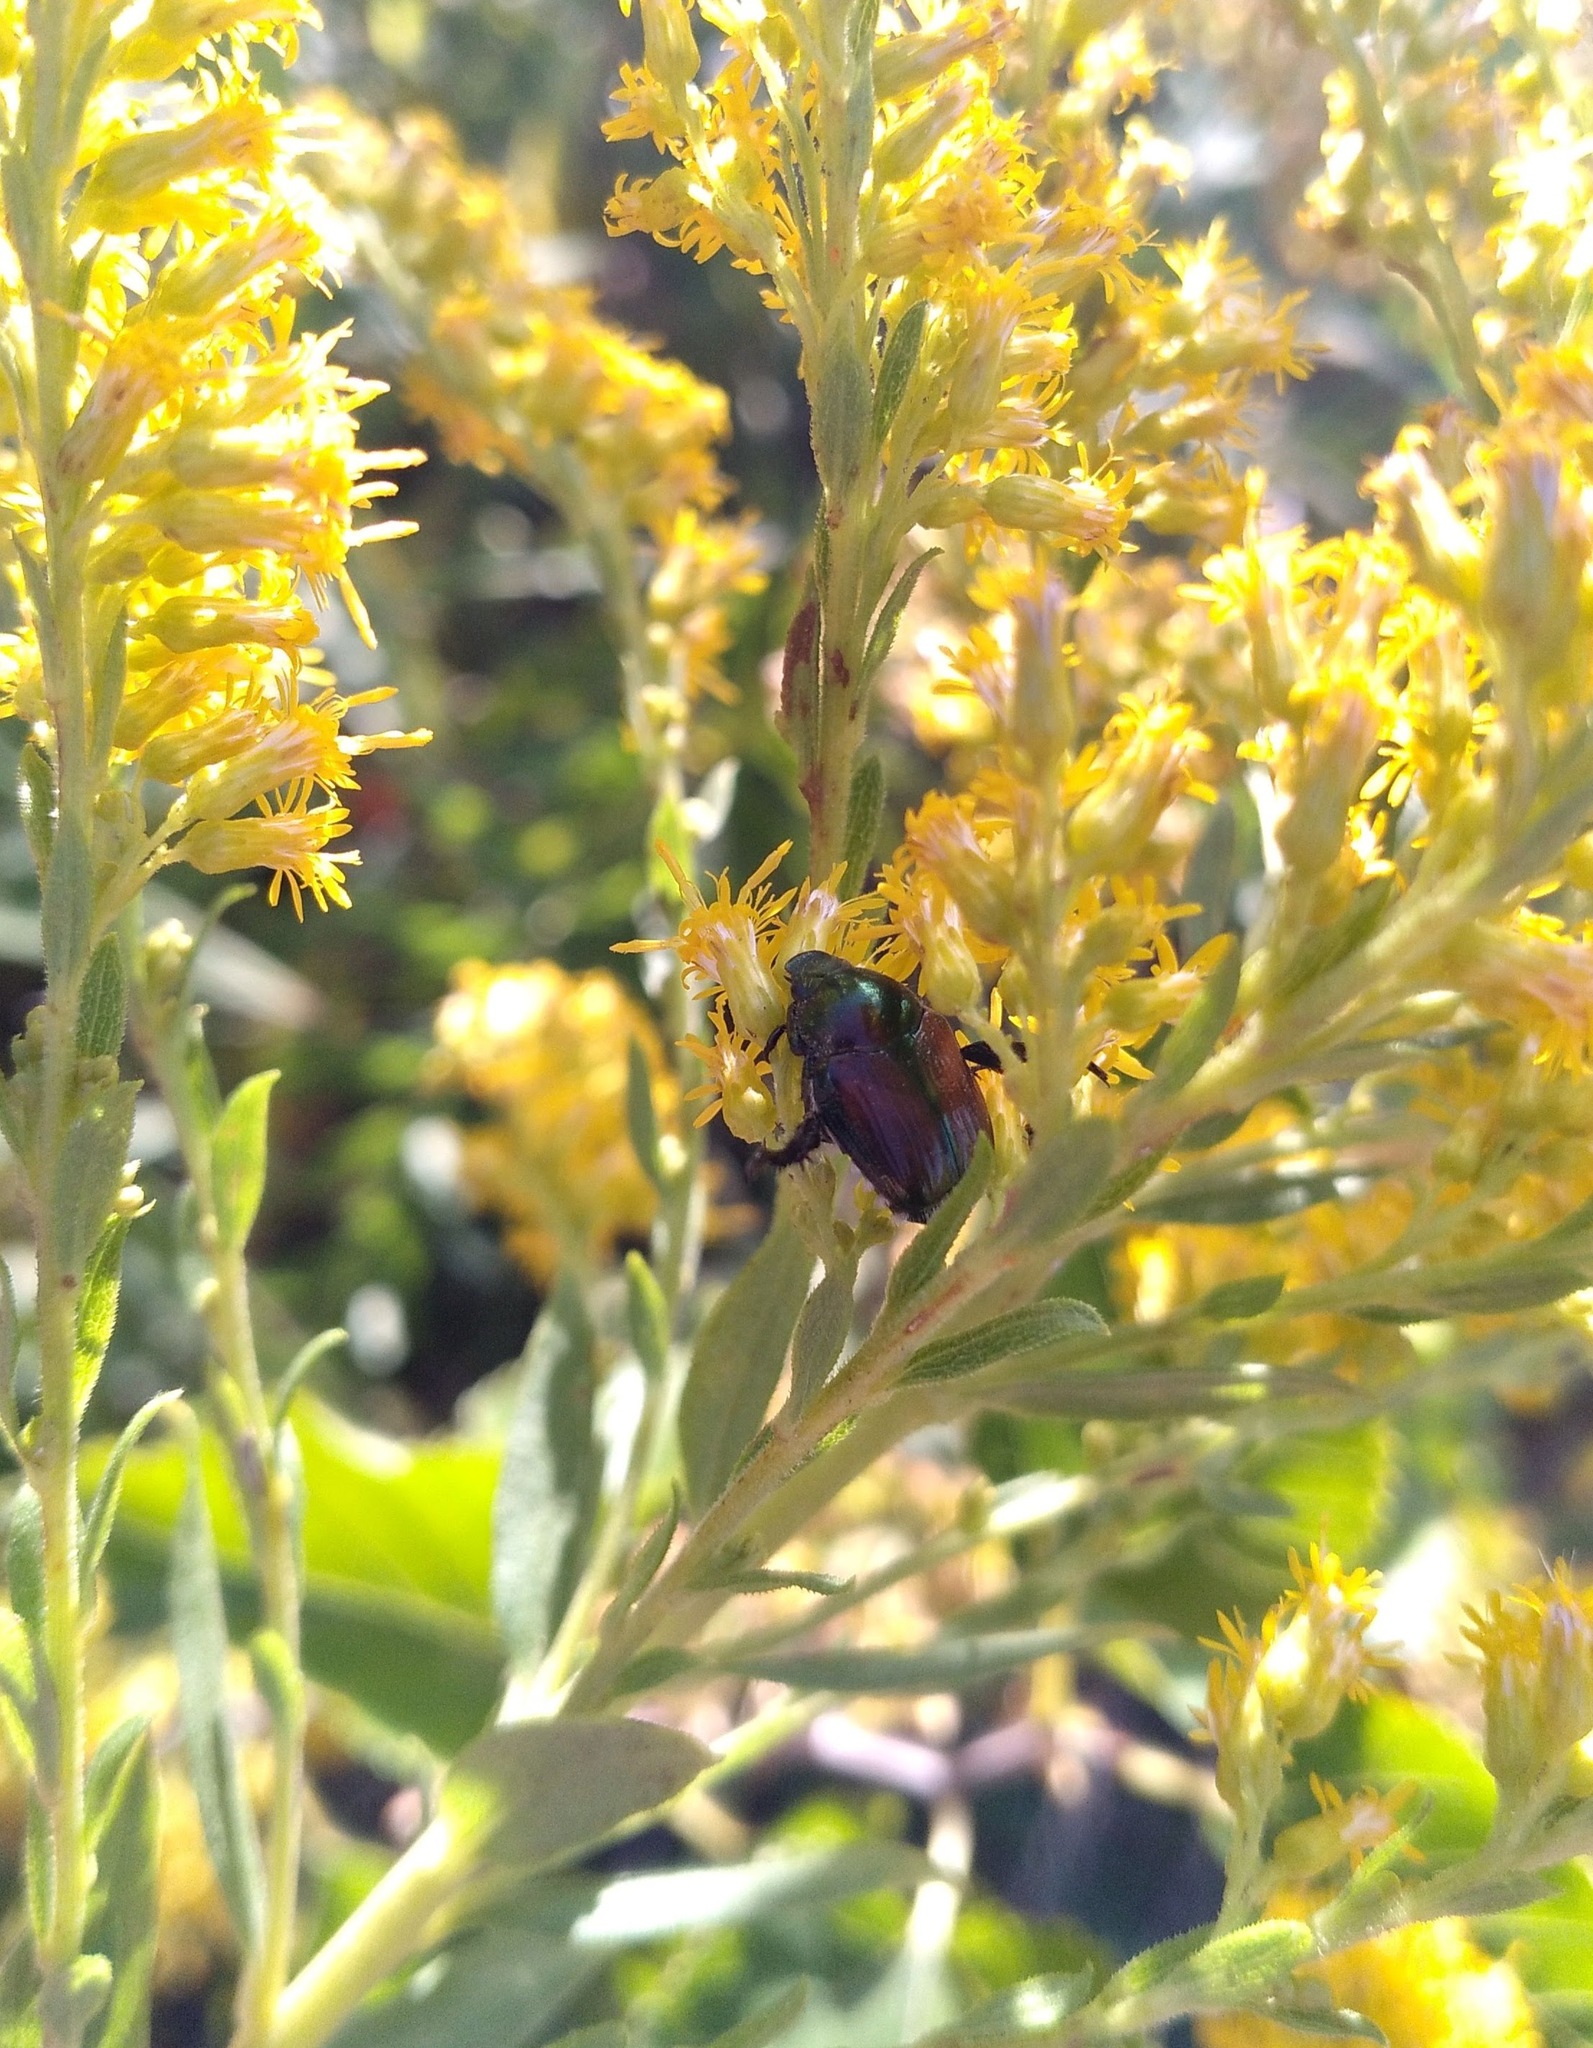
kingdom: Animalia
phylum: Arthropoda
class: Insecta
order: Coleoptera
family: Scarabaeidae
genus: Popillia
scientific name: Popillia japonica
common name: Japanese beetle
